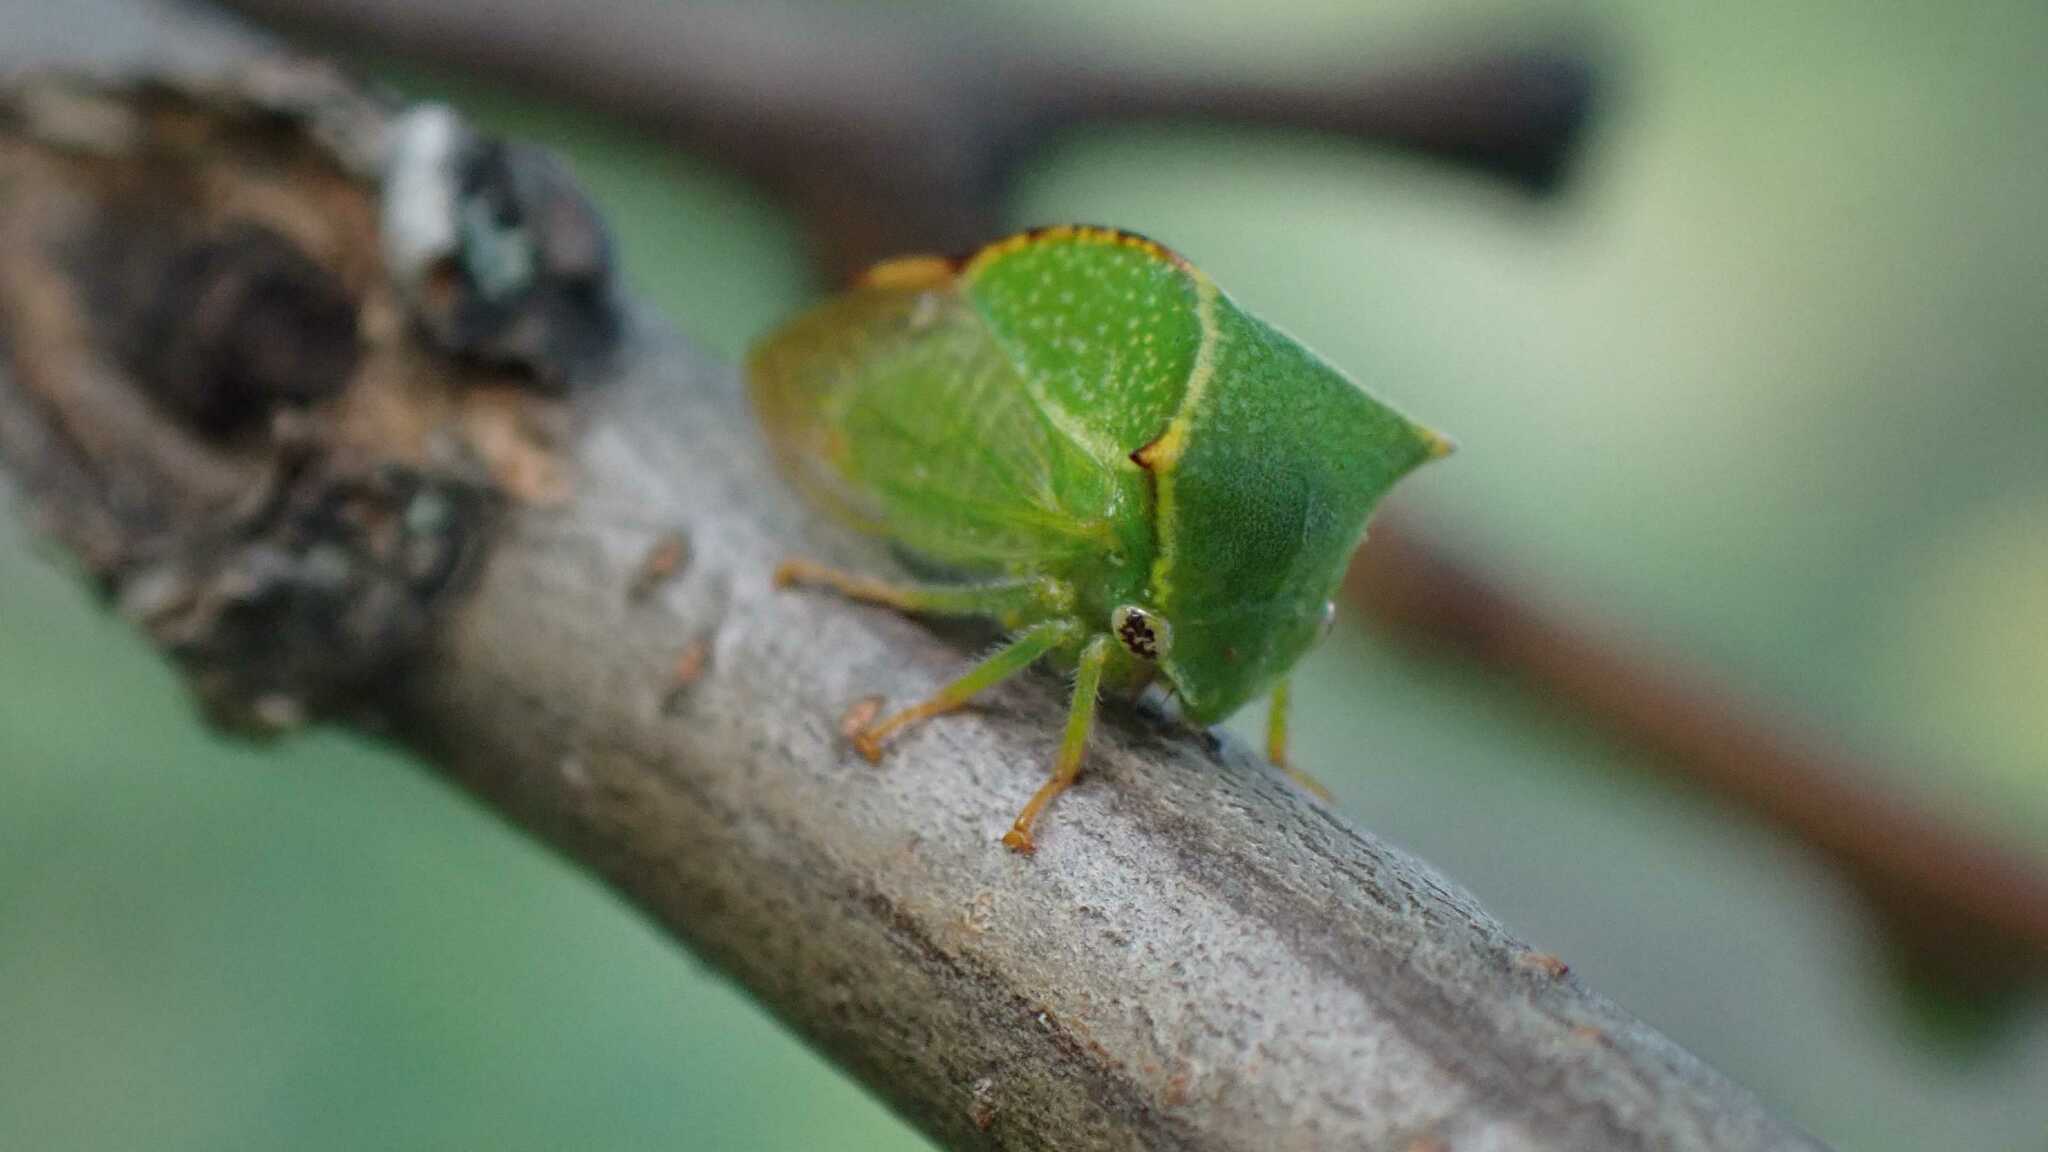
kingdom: Animalia
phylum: Arthropoda
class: Insecta
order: Hemiptera
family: Membracidae
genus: Stictocephala
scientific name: Stictocephala bisonia
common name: American buffalo treehopper
